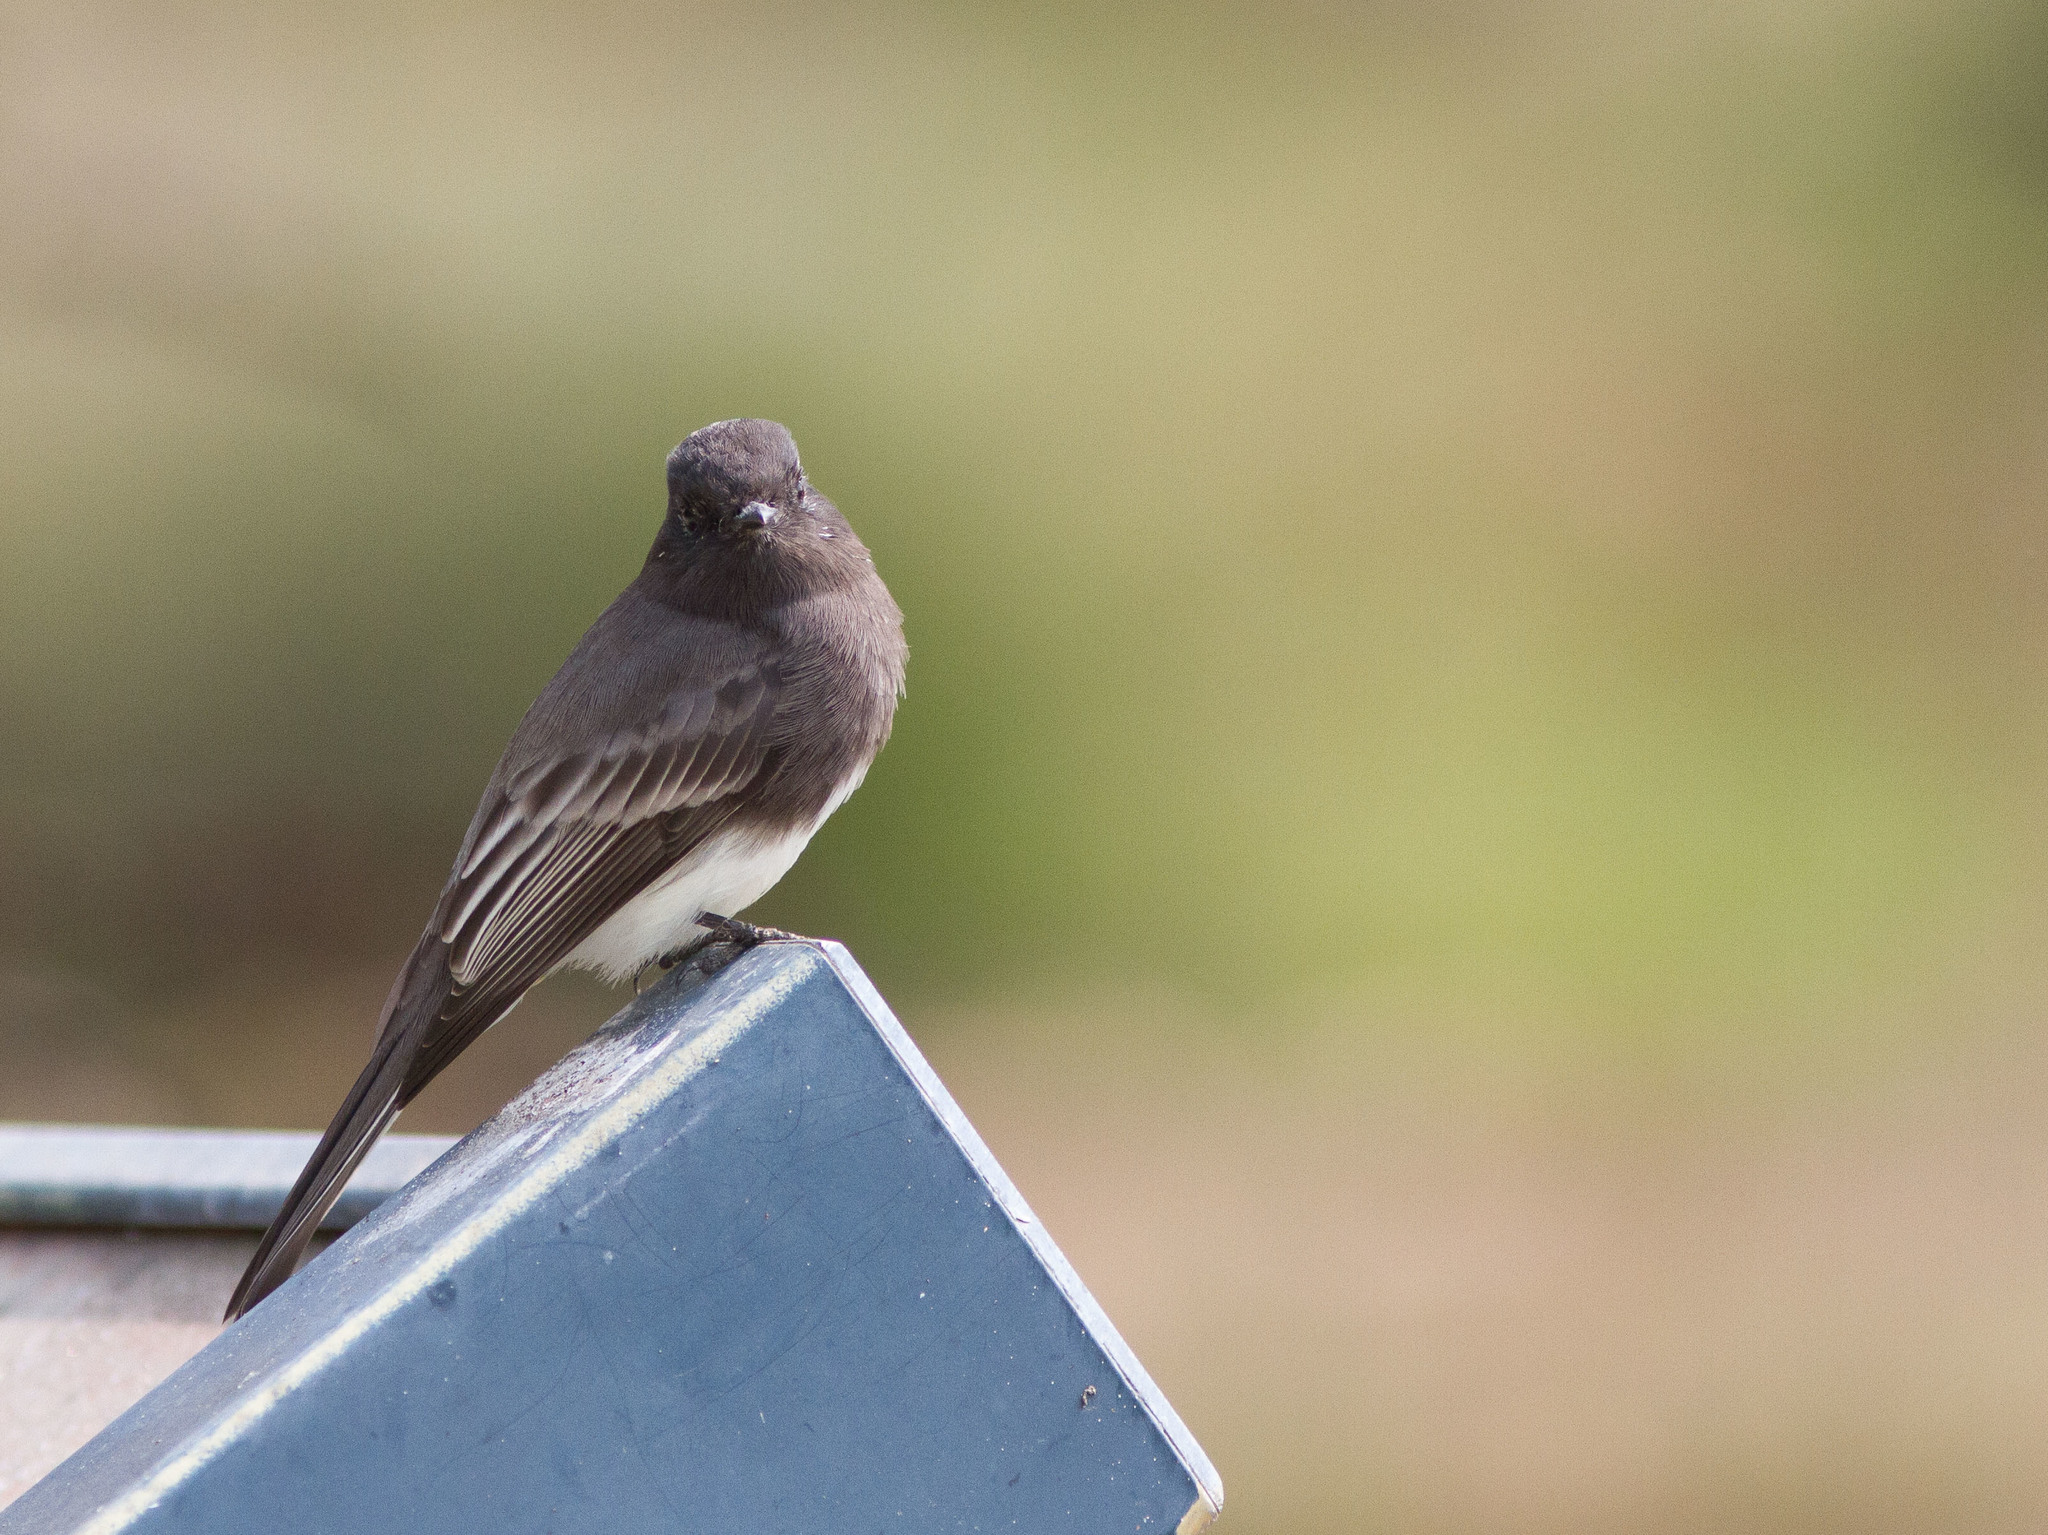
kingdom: Animalia
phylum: Chordata
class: Aves
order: Passeriformes
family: Tyrannidae
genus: Sayornis
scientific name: Sayornis nigricans
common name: Black phoebe
